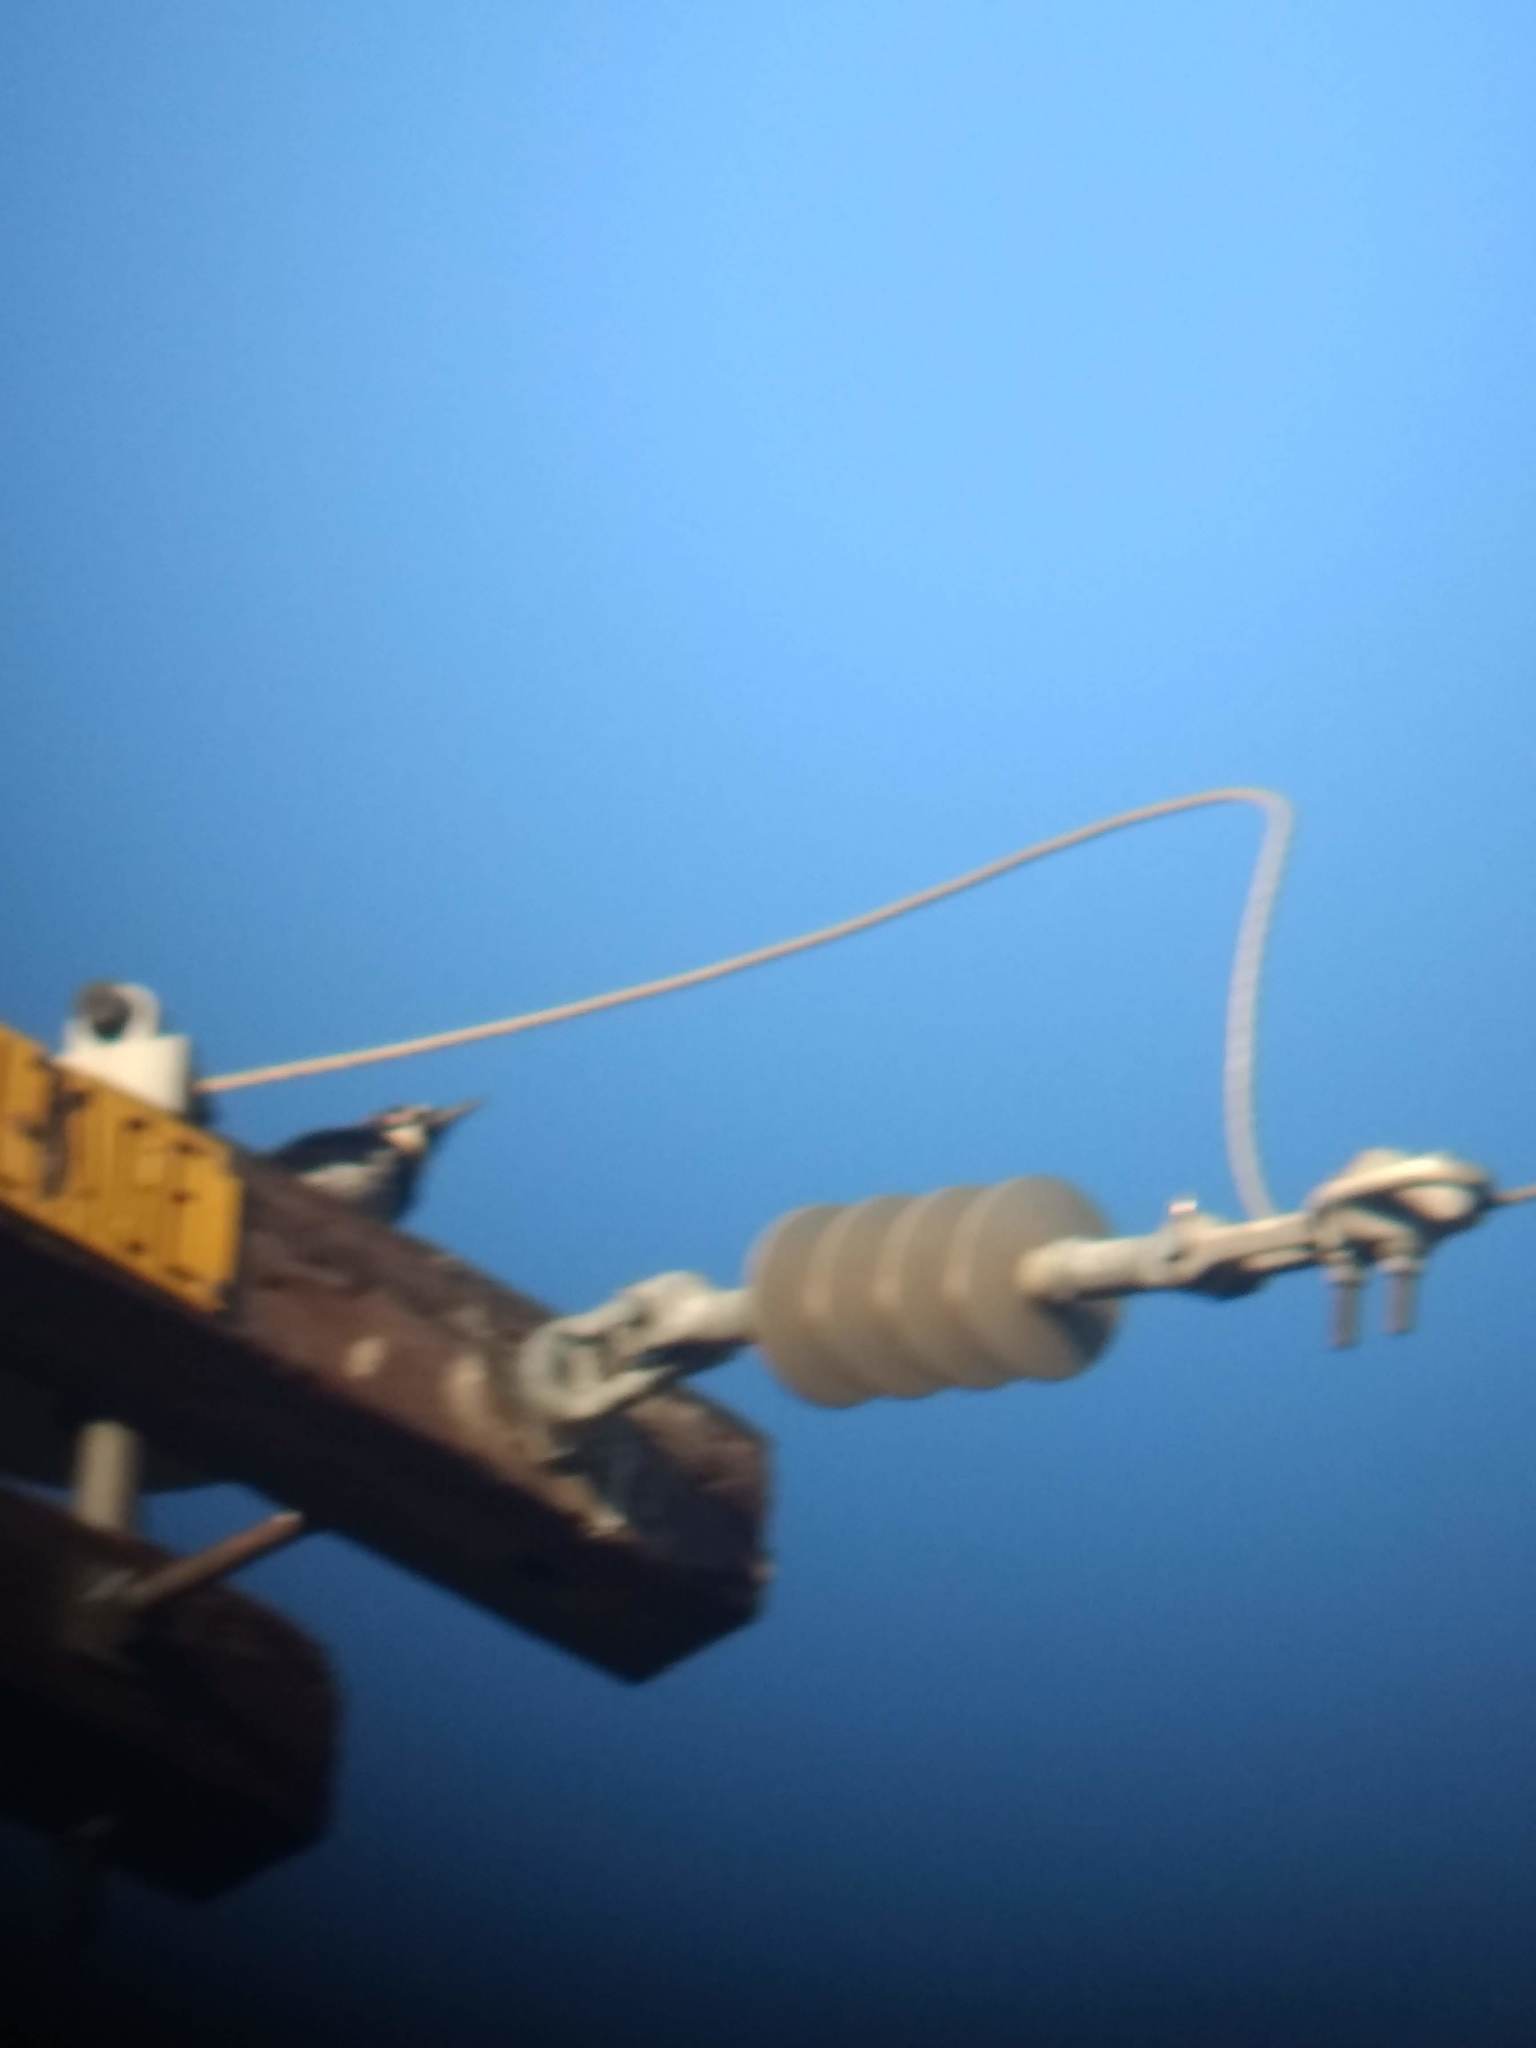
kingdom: Animalia
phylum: Chordata
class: Aves
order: Piciformes
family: Picidae
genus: Melanerpes
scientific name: Melanerpes formicivorus
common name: Acorn woodpecker
